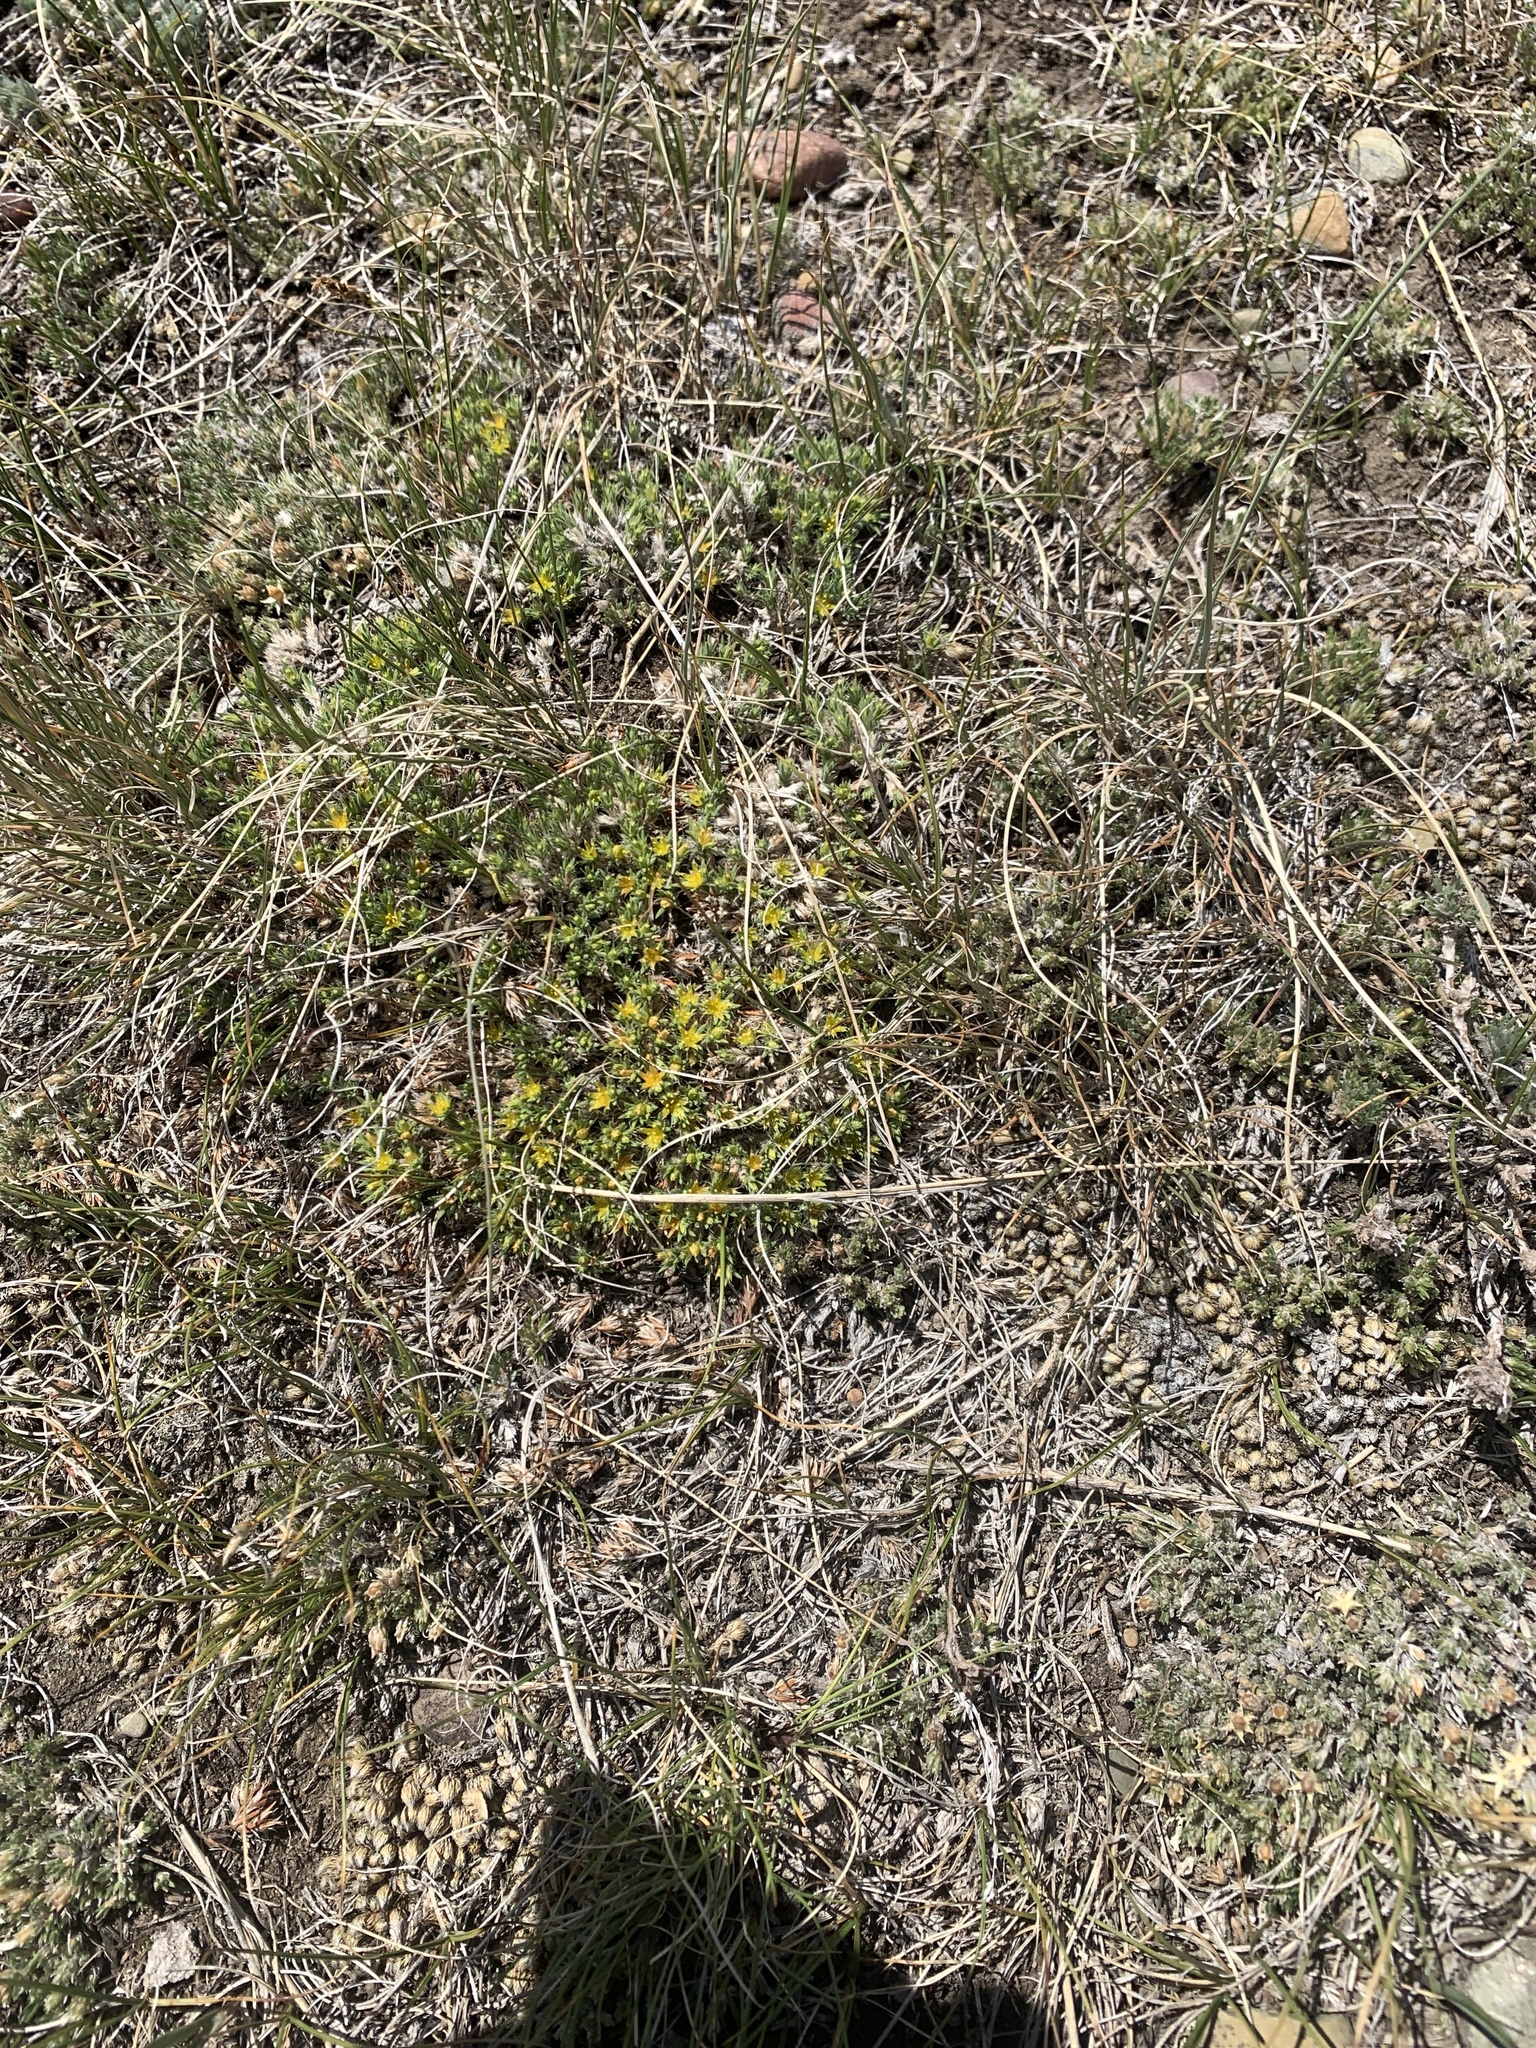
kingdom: Plantae
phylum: Tracheophyta
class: Magnoliopsida
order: Caryophyllales
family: Caryophyllaceae
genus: Paronychia
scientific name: Paronychia sessiliflora
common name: Creeping nailwort
